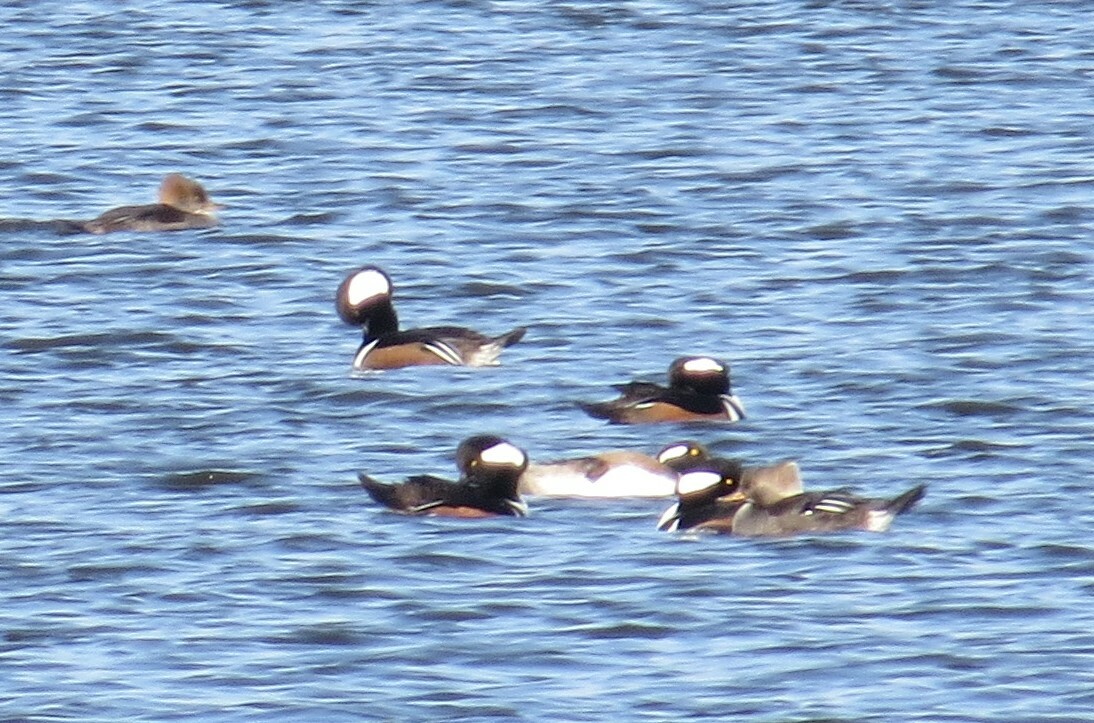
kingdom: Animalia
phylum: Chordata
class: Aves
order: Anseriformes
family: Anatidae
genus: Lophodytes
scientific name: Lophodytes cucullatus
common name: Hooded merganser
